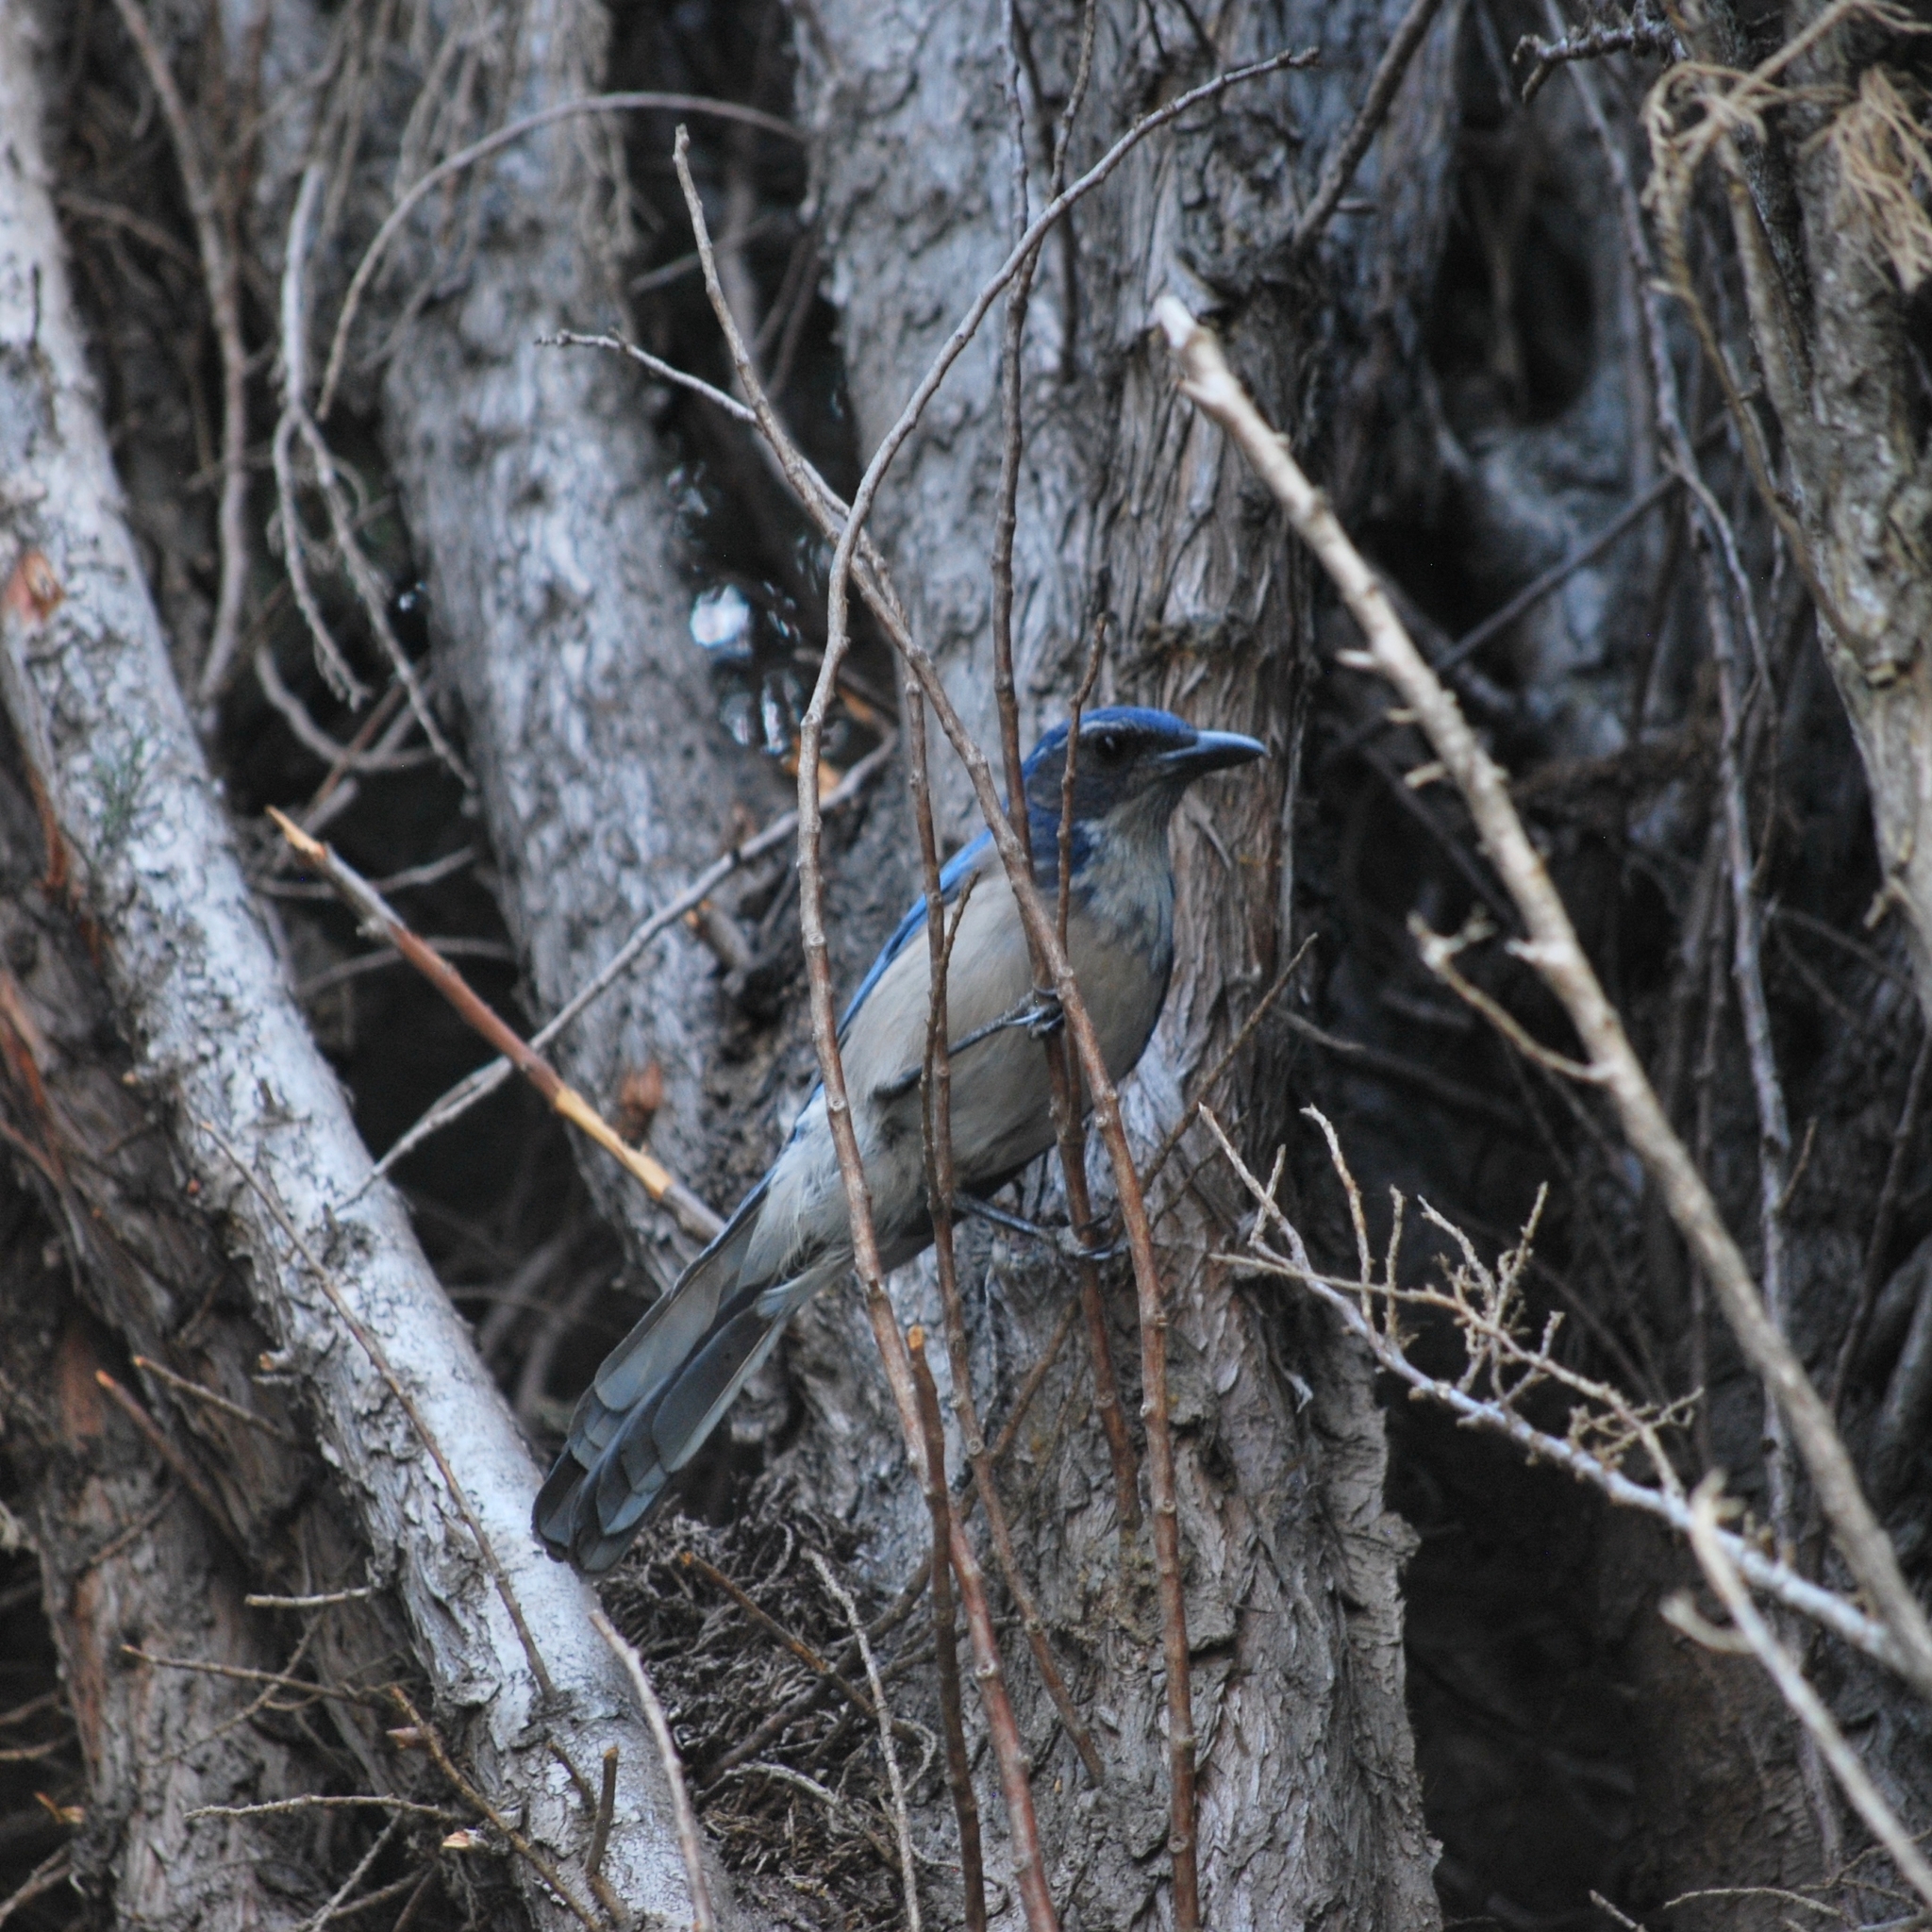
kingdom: Animalia
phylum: Chordata
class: Aves
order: Passeriformes
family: Corvidae
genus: Aphelocoma
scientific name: Aphelocoma californica
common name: California scrub-jay
